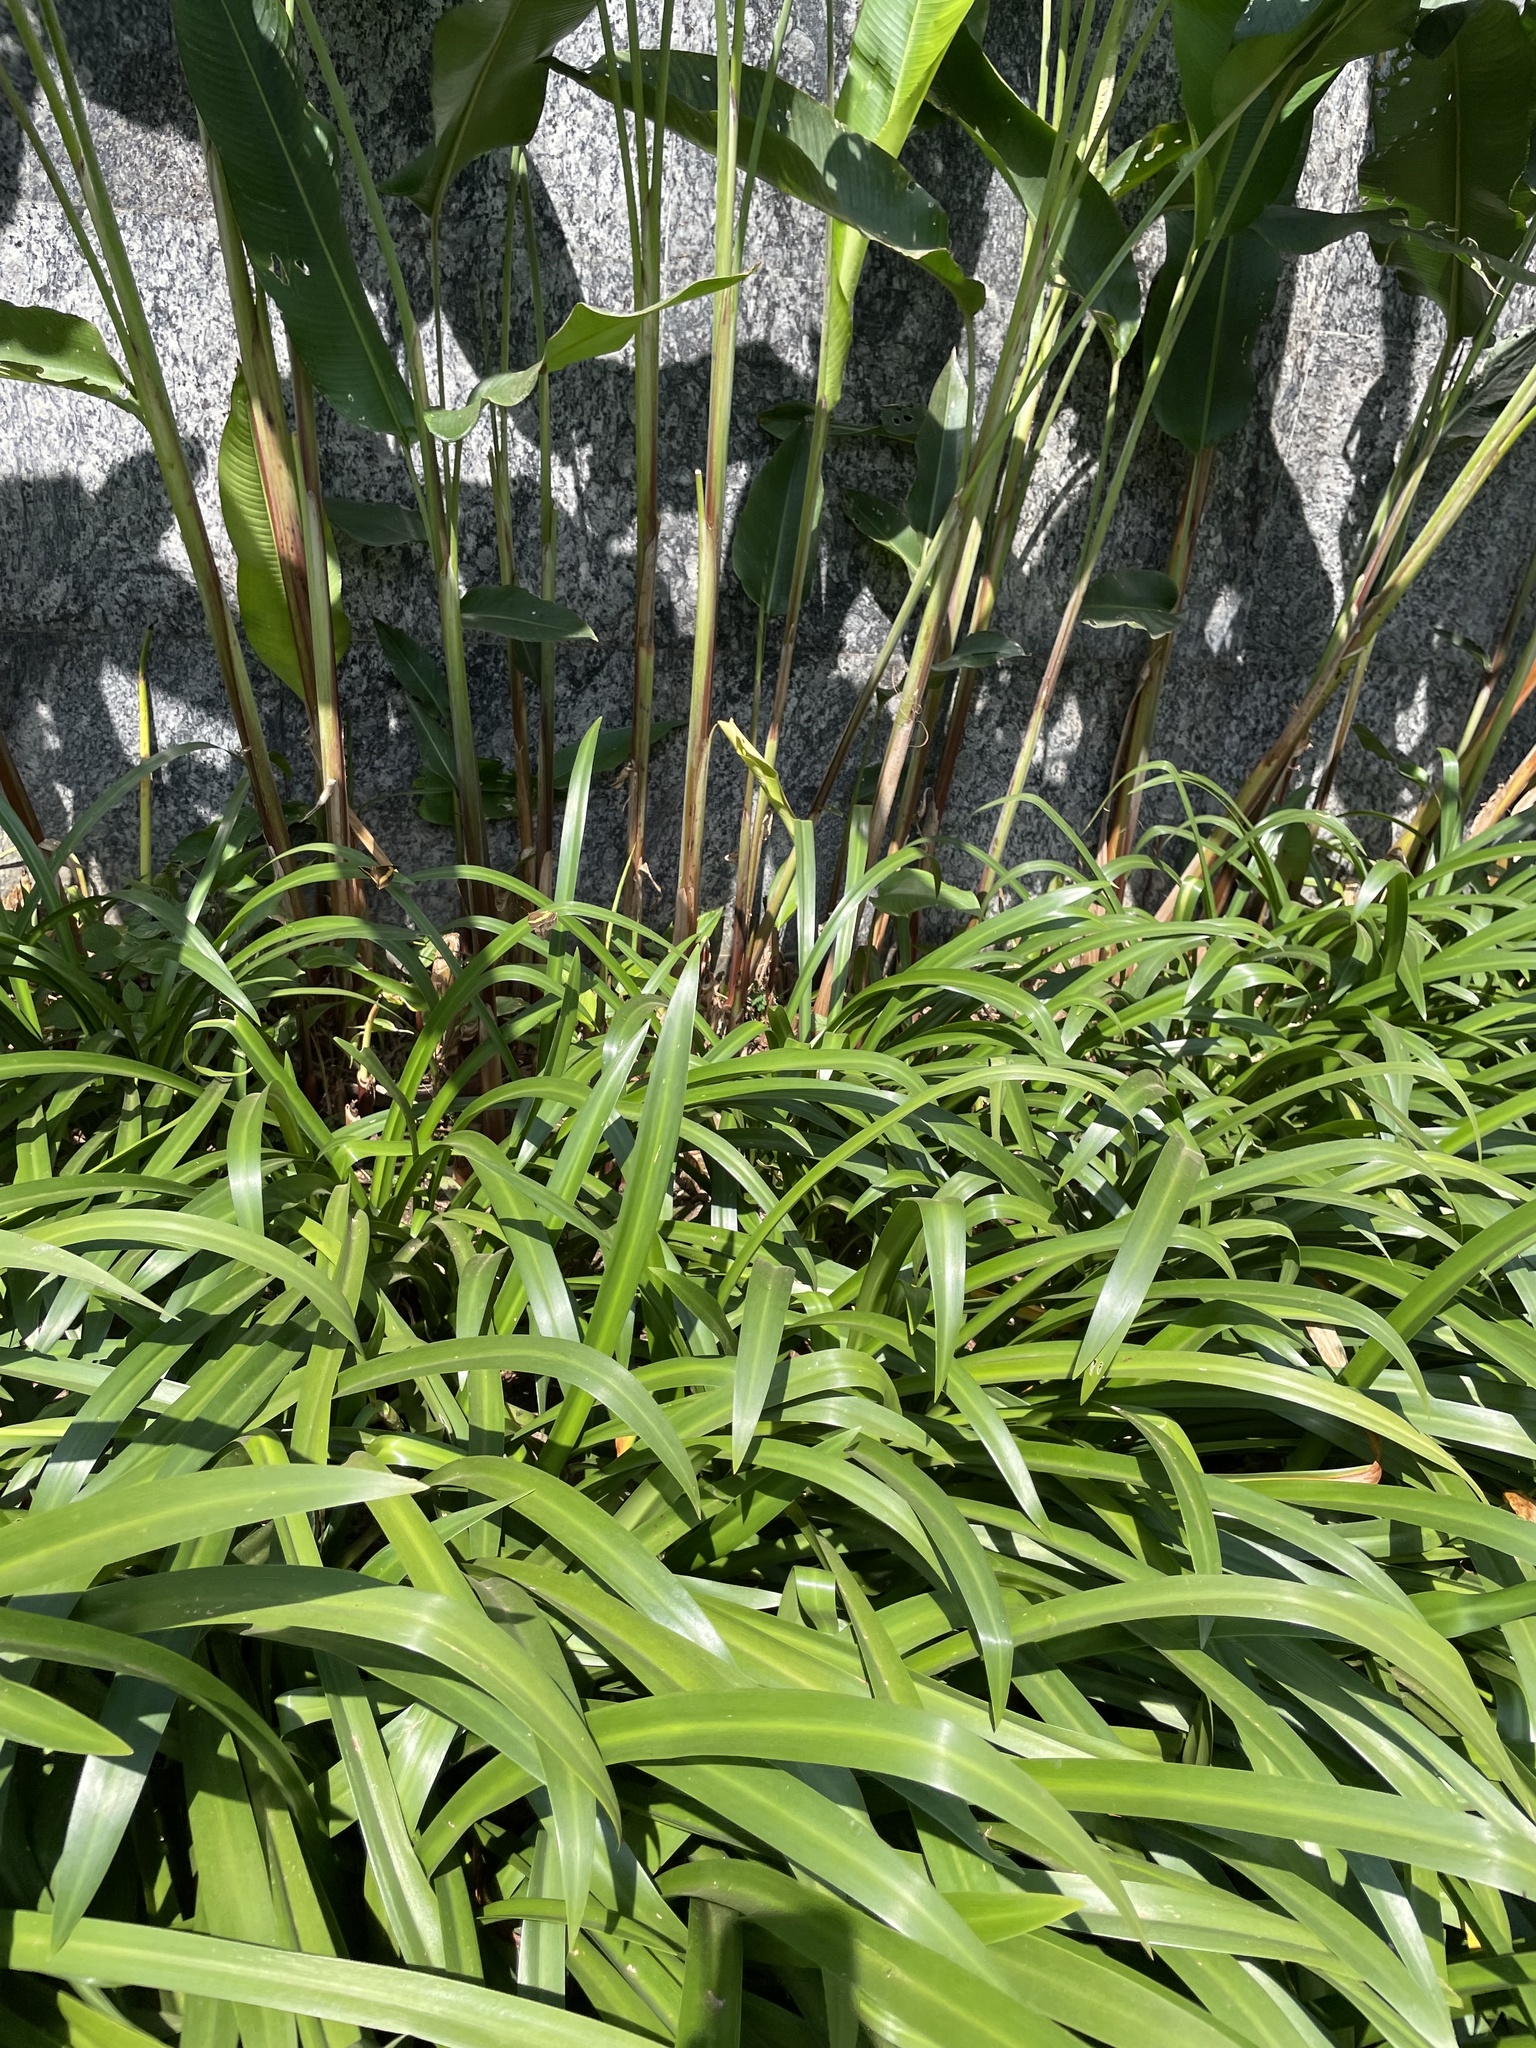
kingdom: Animalia
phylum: Arthropoda
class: Insecta
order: Lepidoptera
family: Nymphalidae
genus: Junonia
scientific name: Junonia terea
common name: Soldier pansy
